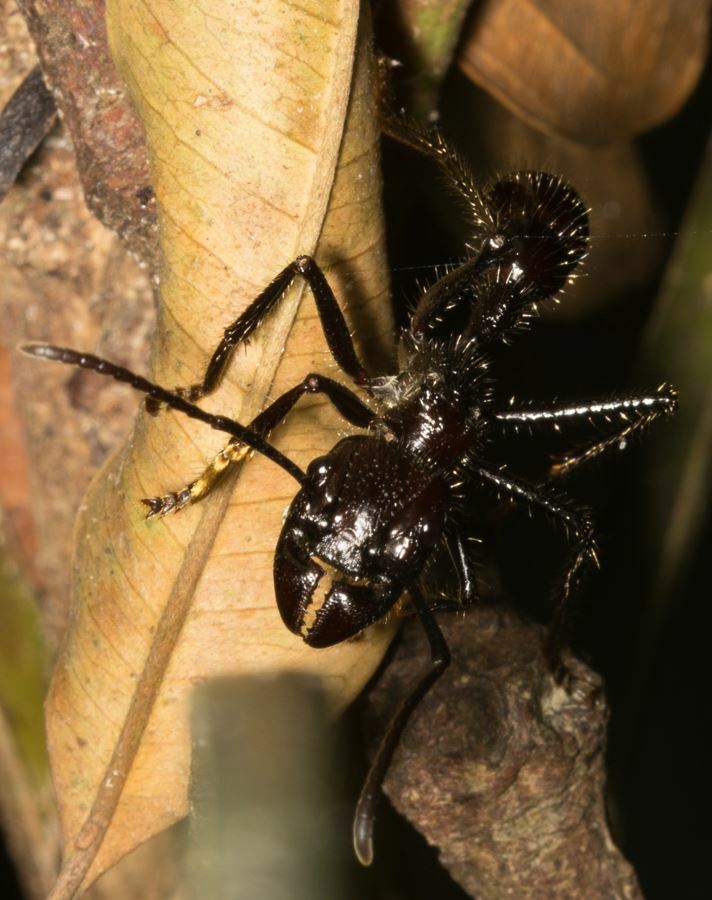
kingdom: Animalia
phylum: Arthropoda
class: Insecta
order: Hymenoptera
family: Formicidae
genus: Paraponera
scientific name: Paraponera clavata
